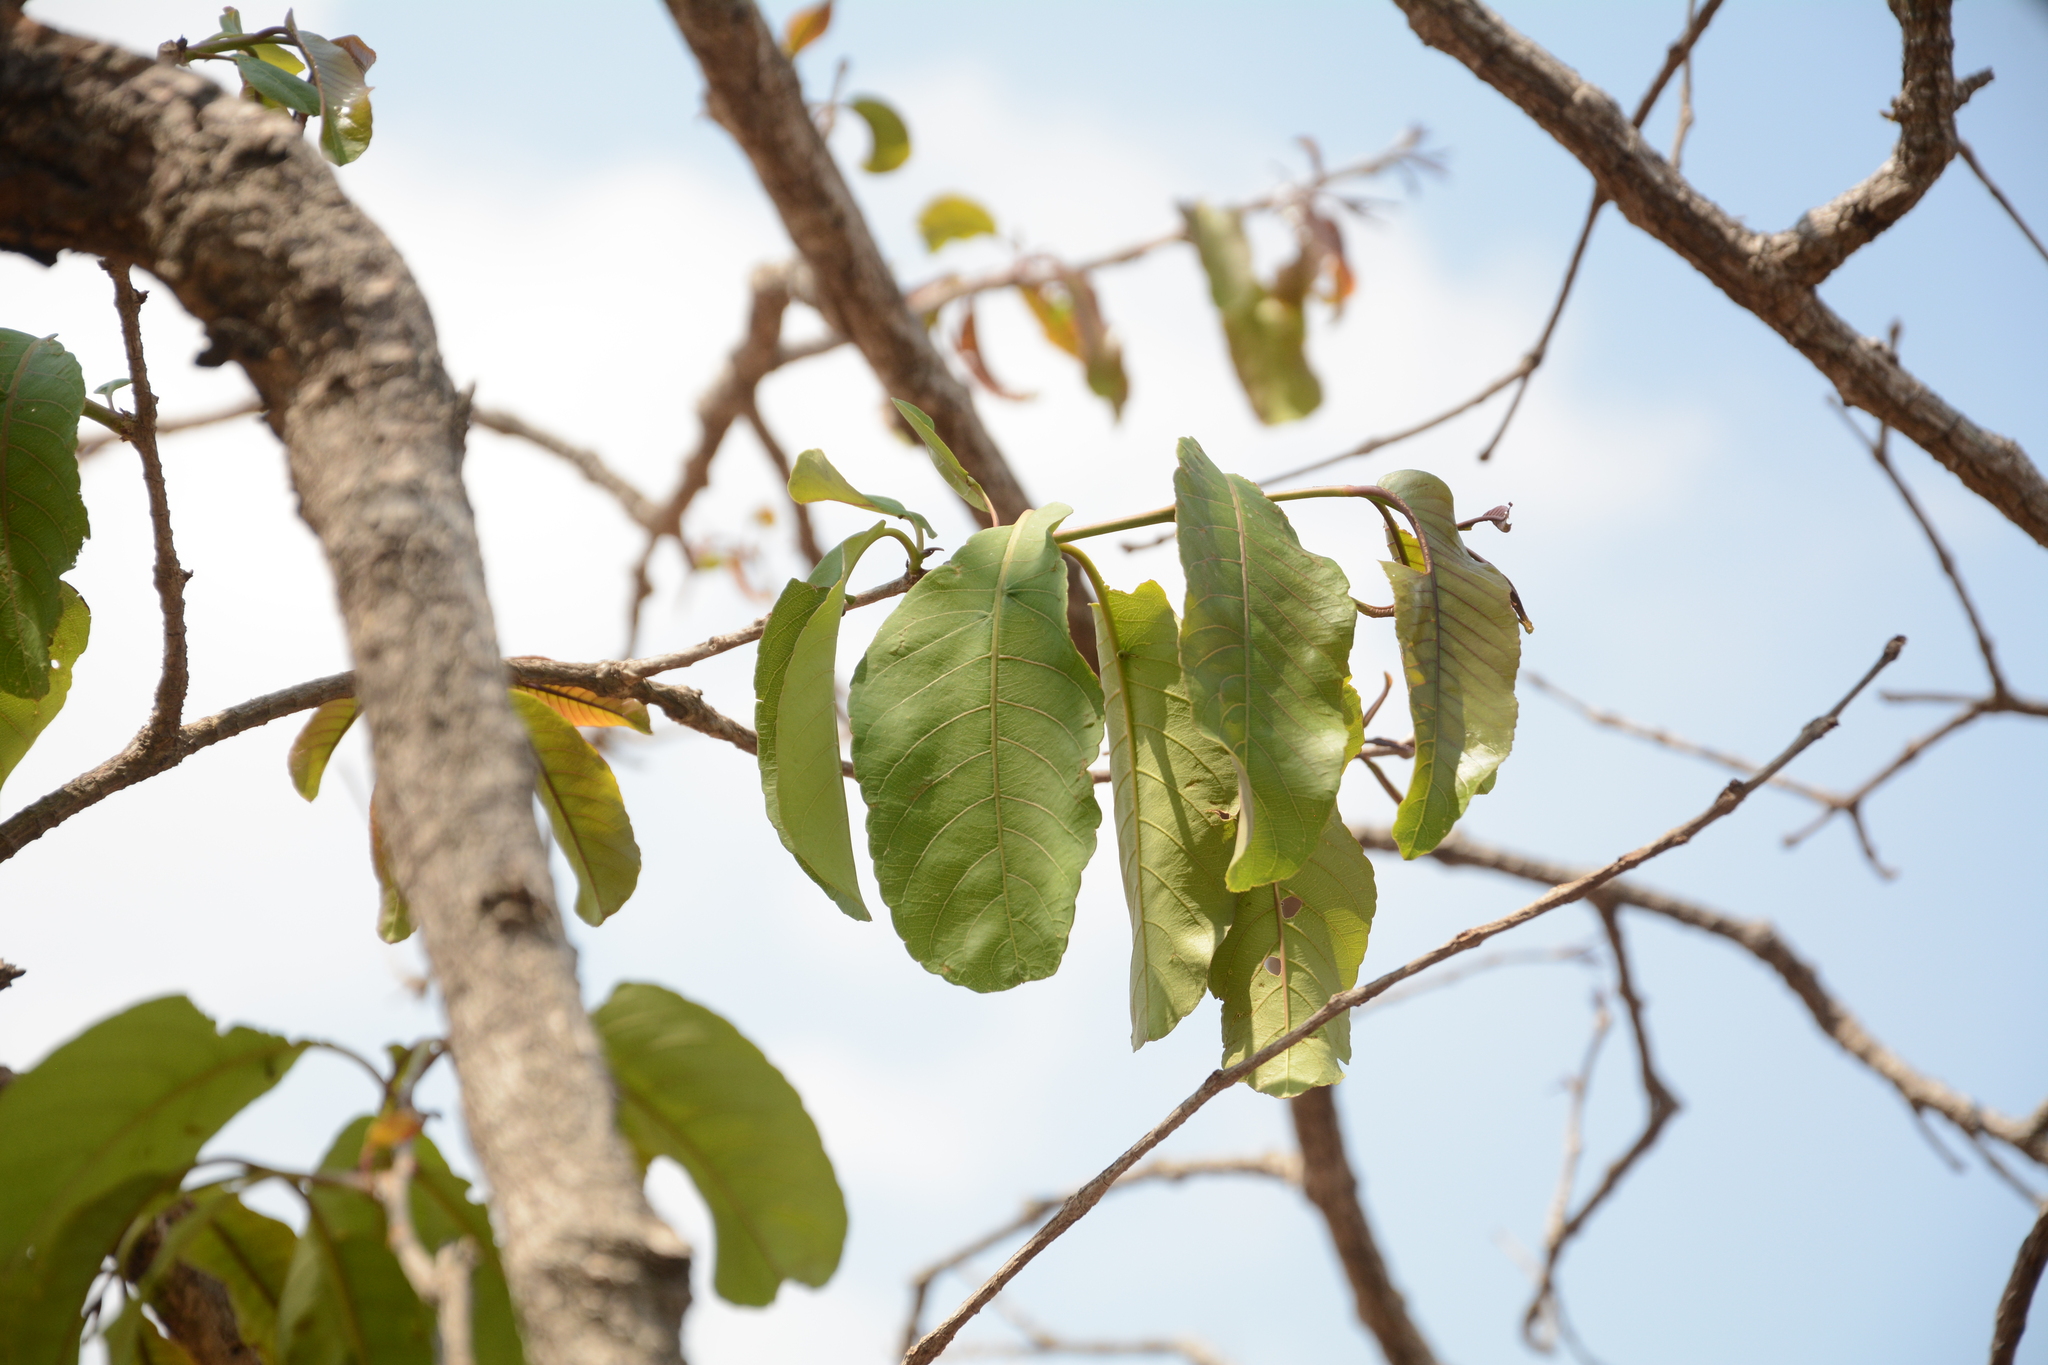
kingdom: Plantae
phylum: Tracheophyta
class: Magnoliopsida
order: Myrtales
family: Combretaceae
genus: Terminalia
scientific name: Terminalia elliptica
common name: Indian-laurel
